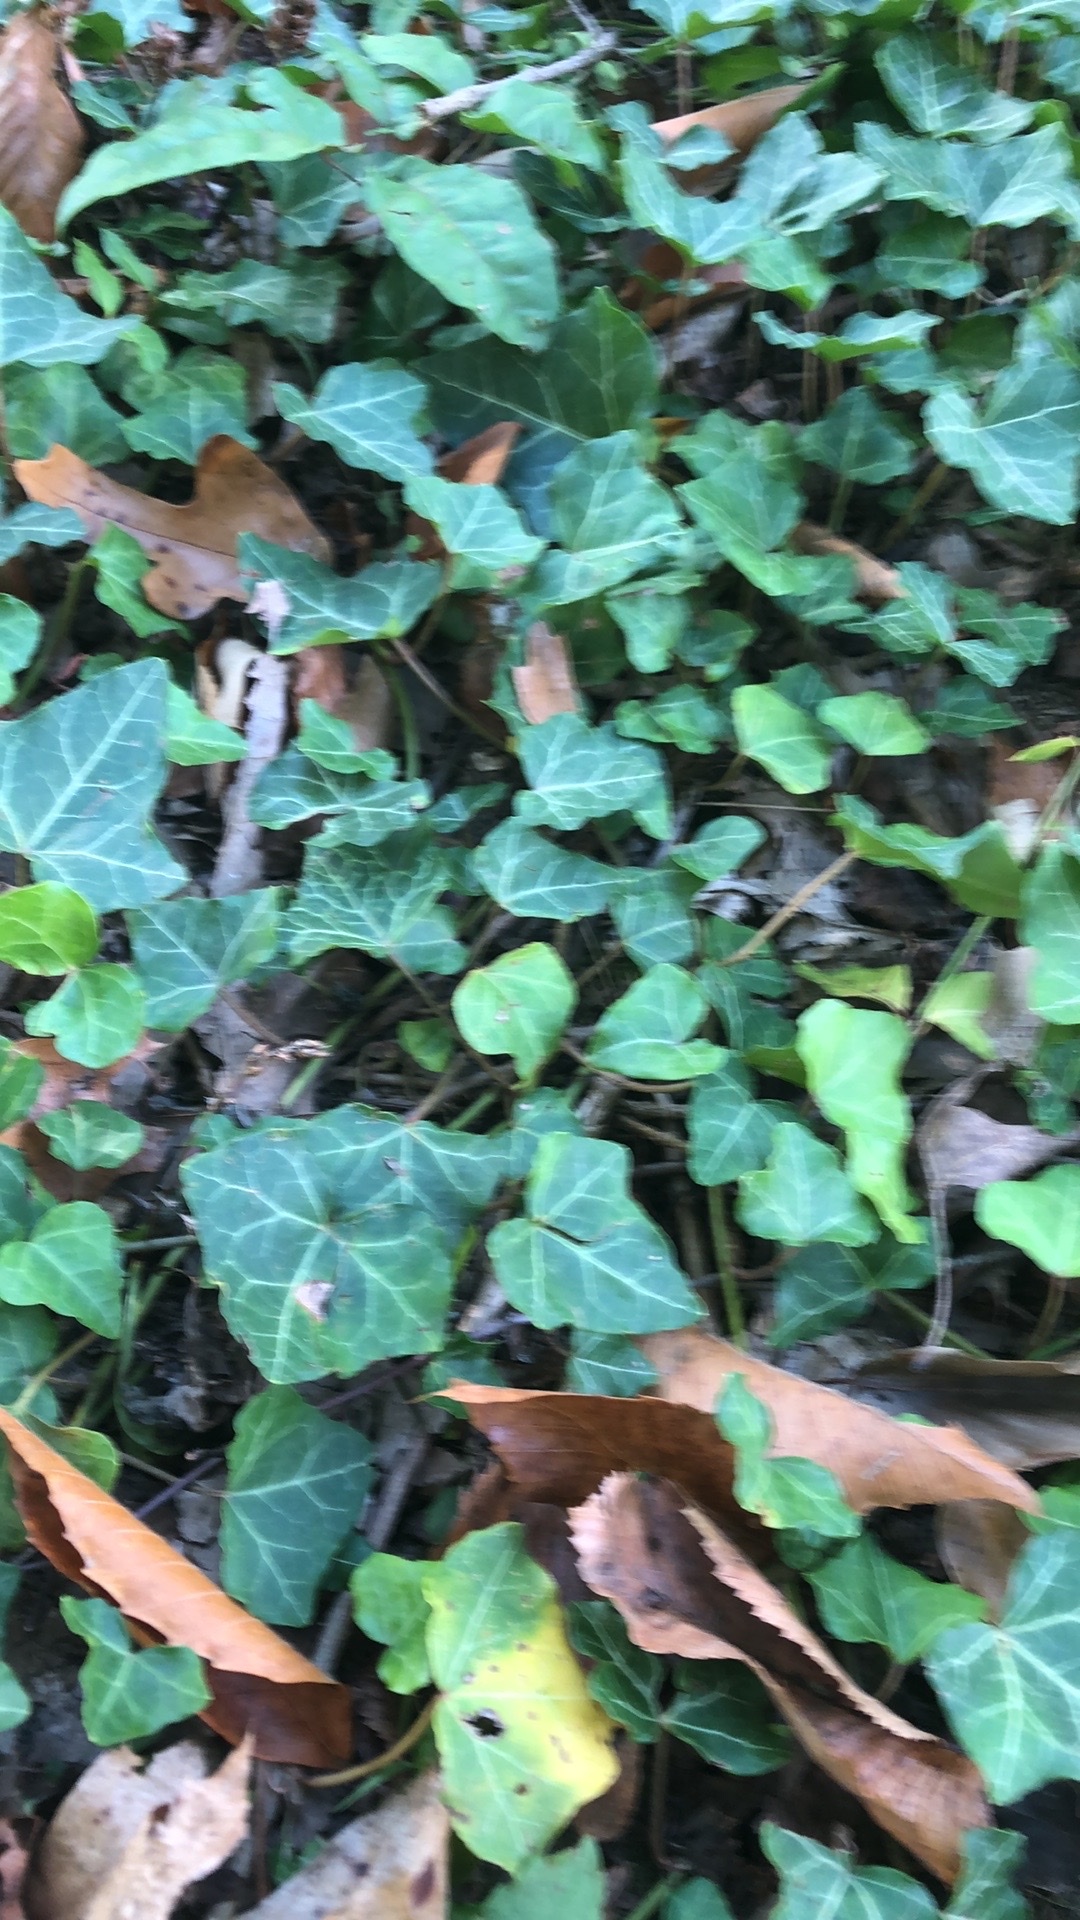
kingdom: Plantae
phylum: Tracheophyta
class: Magnoliopsida
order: Apiales
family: Araliaceae
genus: Hedera
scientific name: Hedera helix
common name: Ivy
